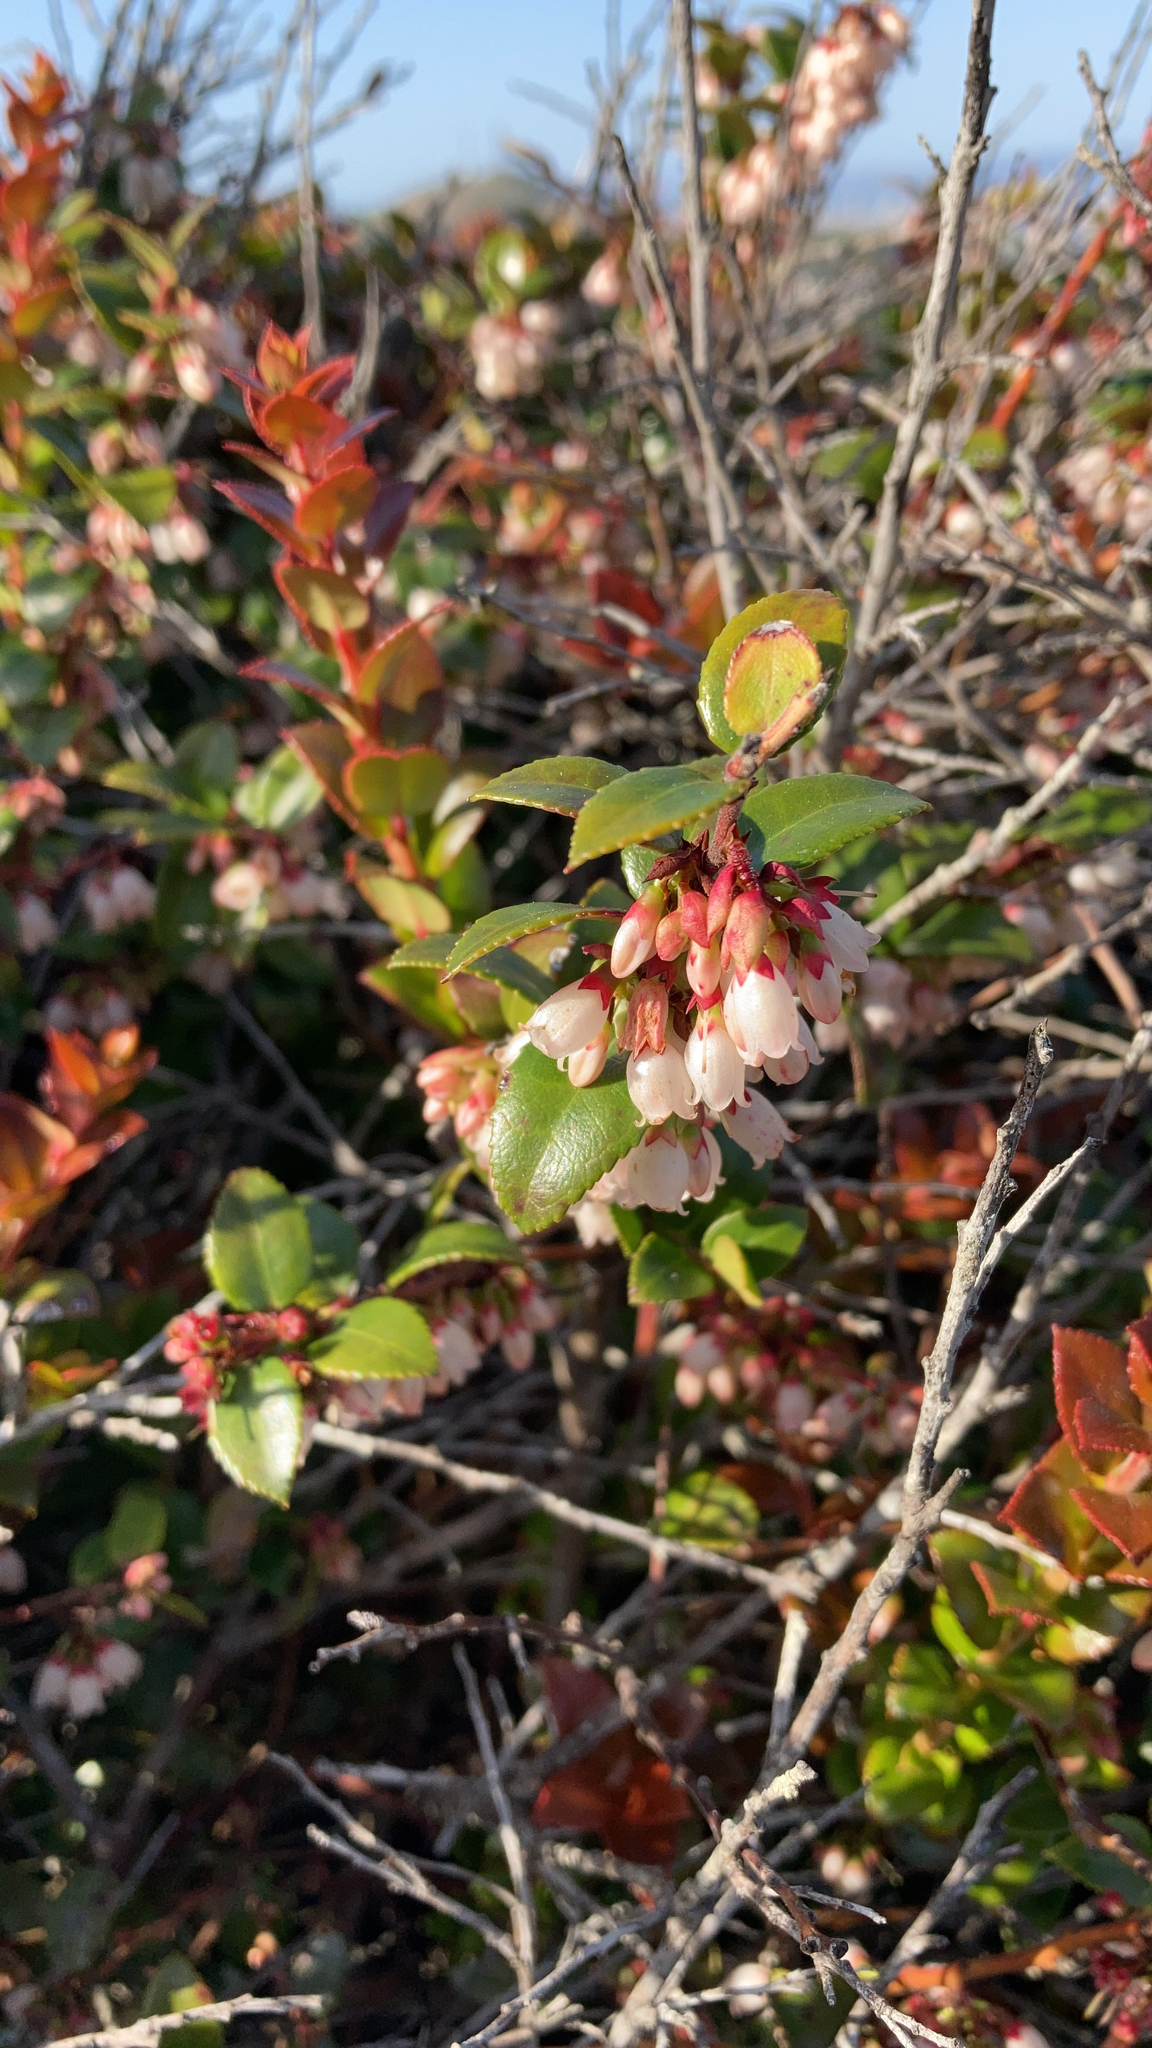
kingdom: Plantae
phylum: Tracheophyta
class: Magnoliopsida
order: Ericales
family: Ericaceae
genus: Vaccinium
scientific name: Vaccinium ovatum
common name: California-huckleberry
